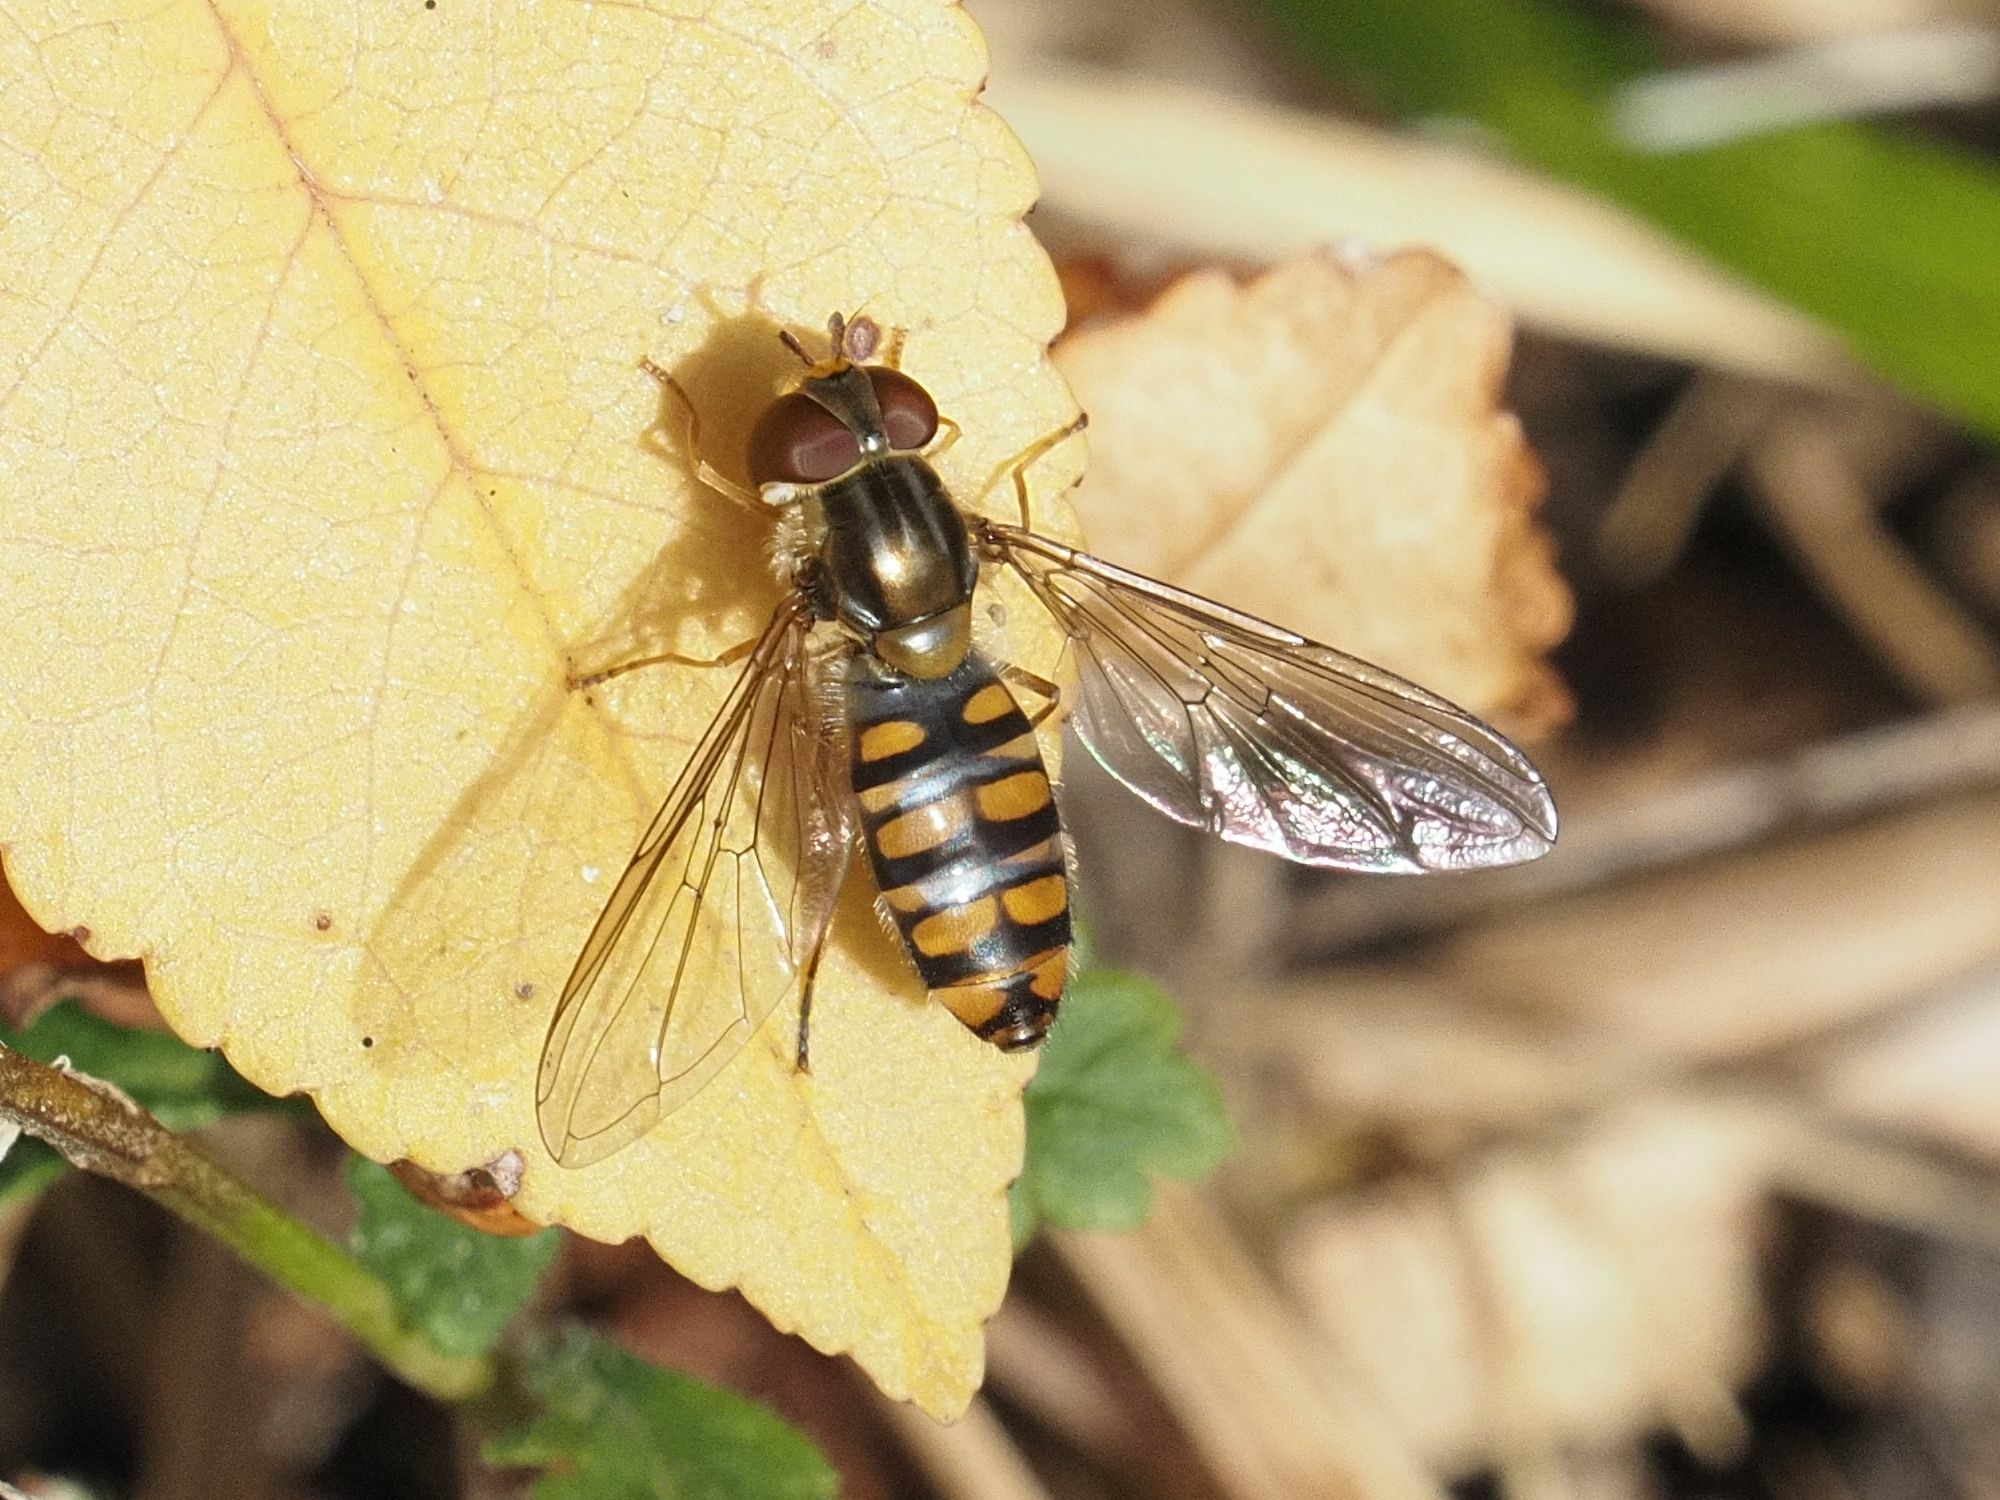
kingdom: Animalia
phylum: Arthropoda
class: Insecta
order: Diptera
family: Syrphidae
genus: Episyrphus
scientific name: Episyrphus balteatus
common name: Marmalade hoverfly
